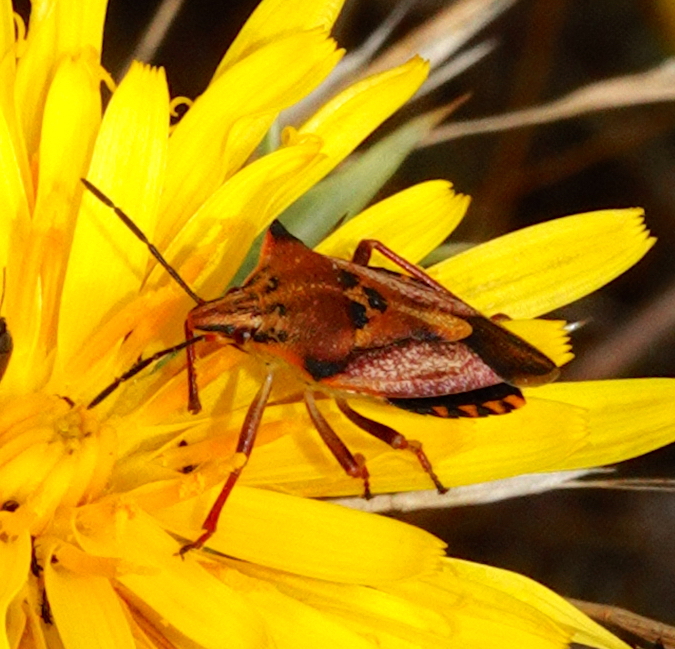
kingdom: Animalia
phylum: Arthropoda
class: Insecta
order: Hemiptera
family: Pentatomidae
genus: Carpocoris
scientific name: Carpocoris mediterraneus
